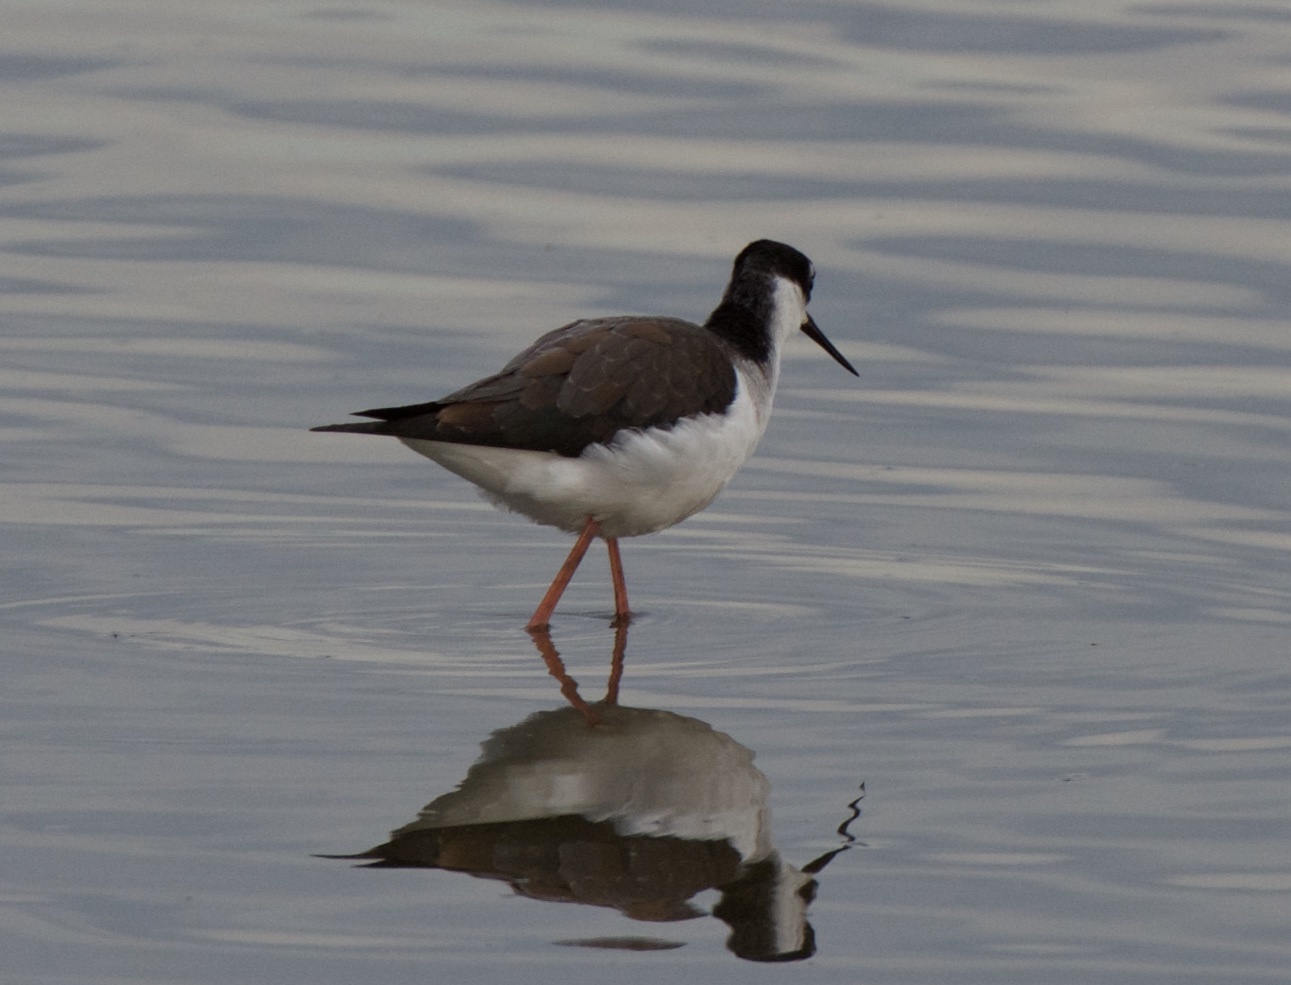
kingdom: Animalia
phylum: Chordata
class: Aves
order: Charadriiformes
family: Recurvirostridae
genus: Himantopus
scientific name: Himantopus mexicanus
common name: Black-necked stilt
